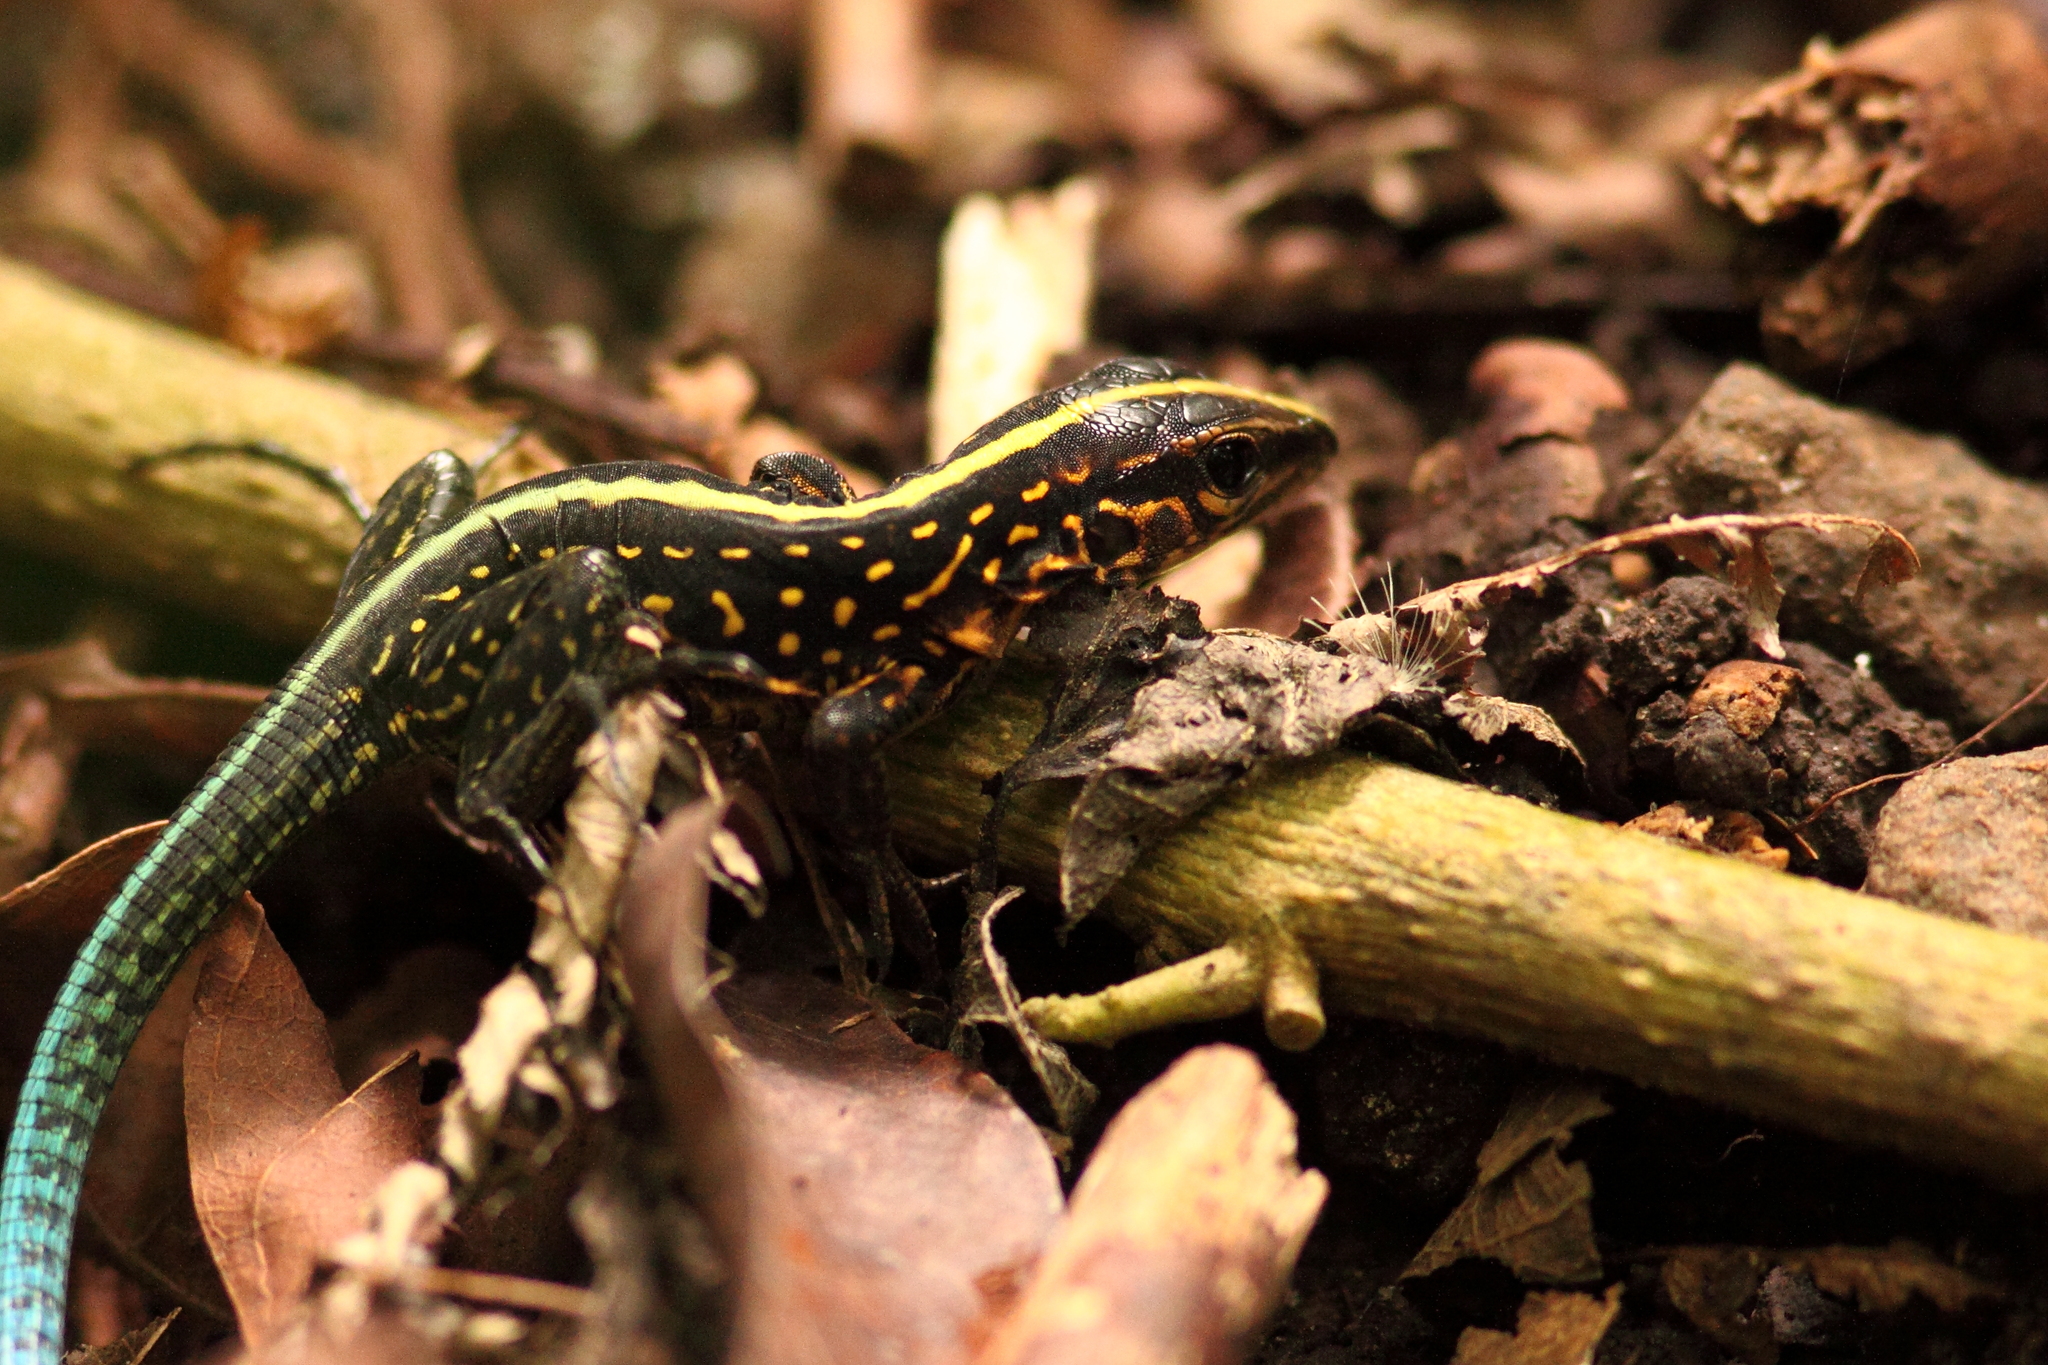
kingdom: Animalia
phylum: Chordata
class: Squamata
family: Teiidae
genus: Holcosus
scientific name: Holcosus festivus
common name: Middle american ameiva
